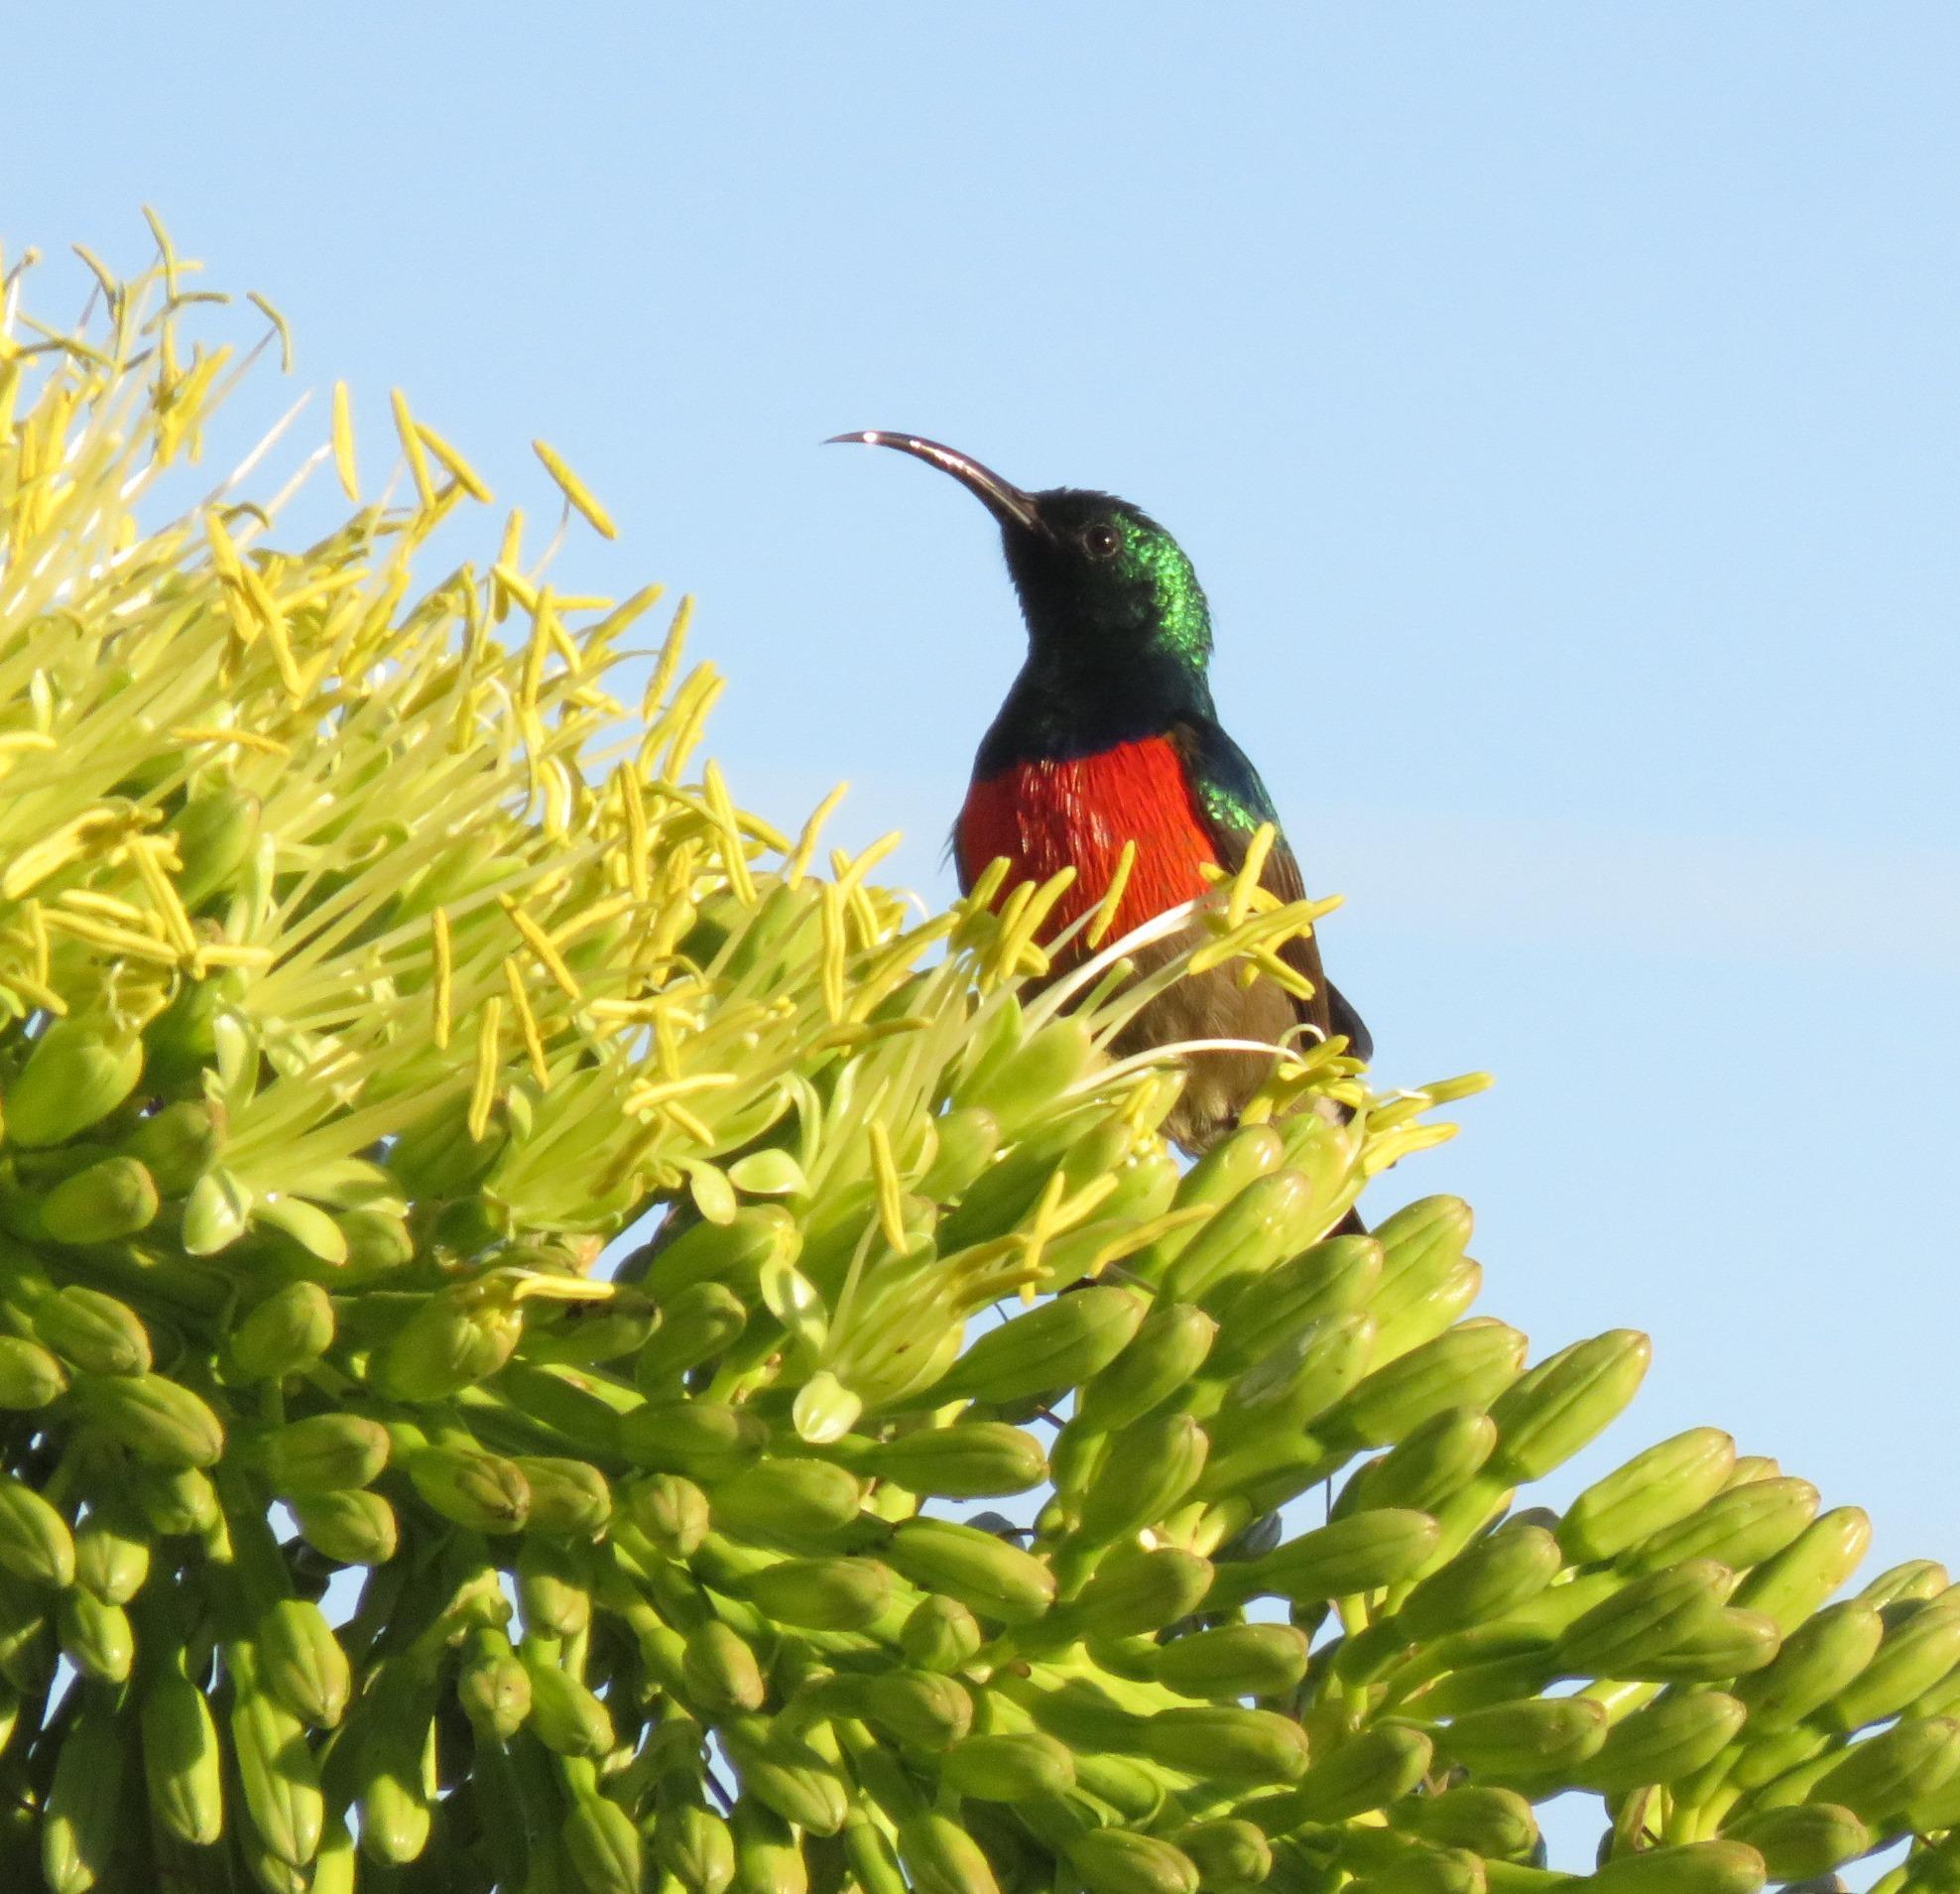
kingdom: Animalia
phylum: Chordata
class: Aves
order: Passeriformes
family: Nectariniidae
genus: Cinnyris
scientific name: Cinnyris afer
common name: Greater double-collared sunbird
